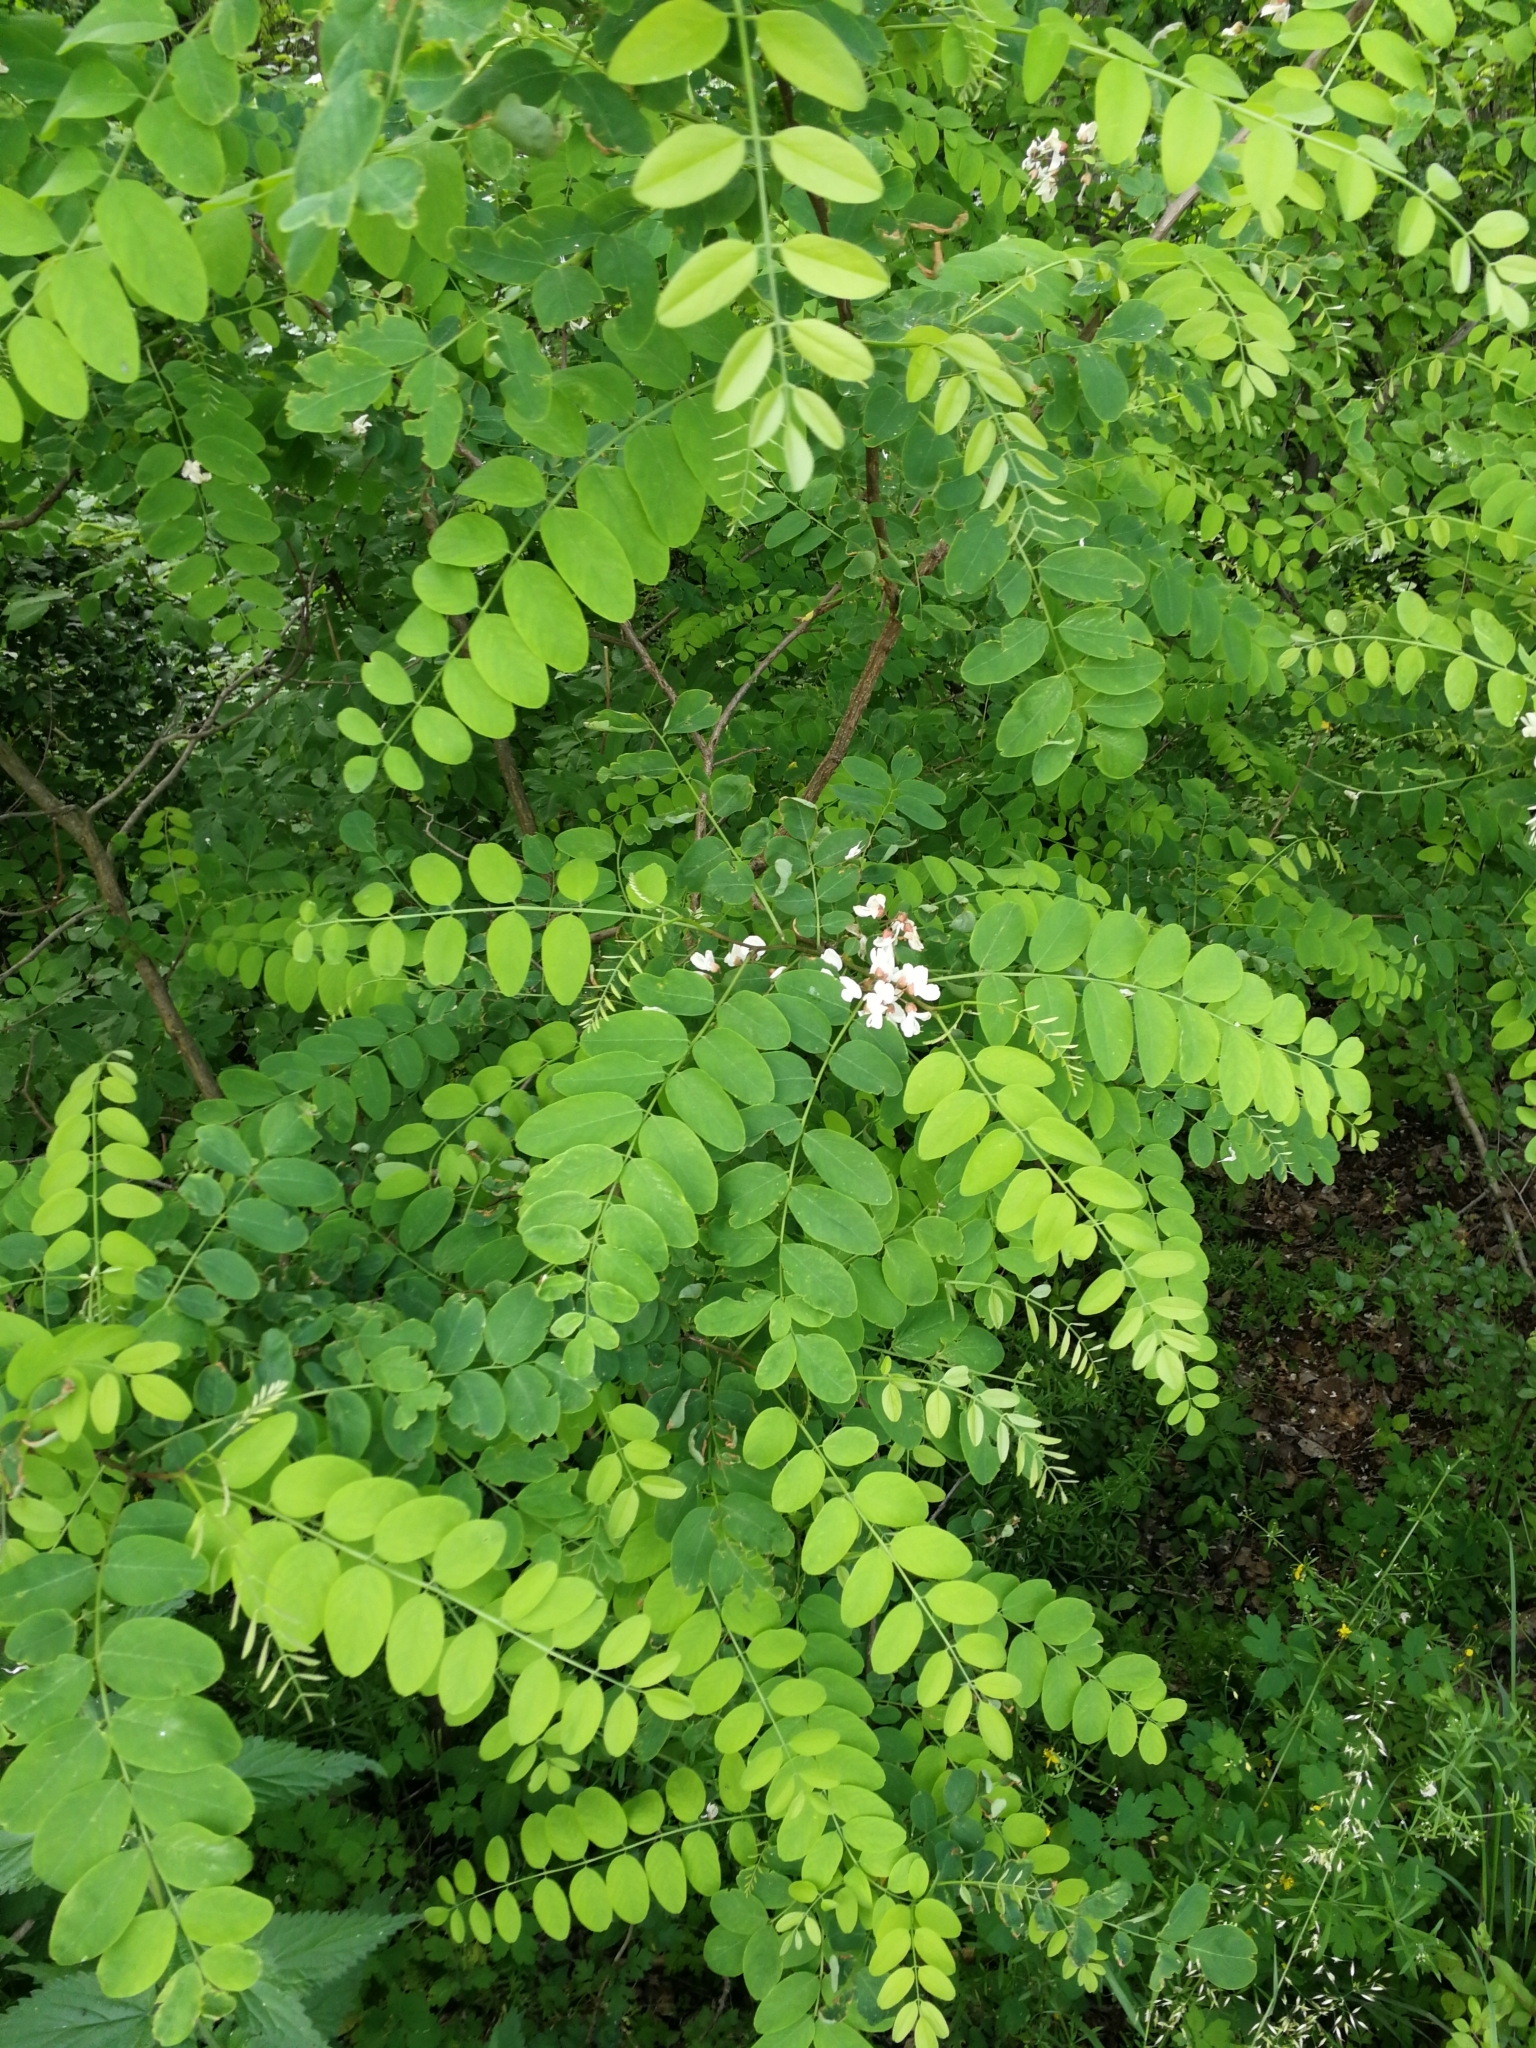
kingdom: Plantae
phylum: Tracheophyta
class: Magnoliopsida
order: Fabales
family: Fabaceae
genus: Robinia
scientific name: Robinia pseudoacacia
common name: Black locust
